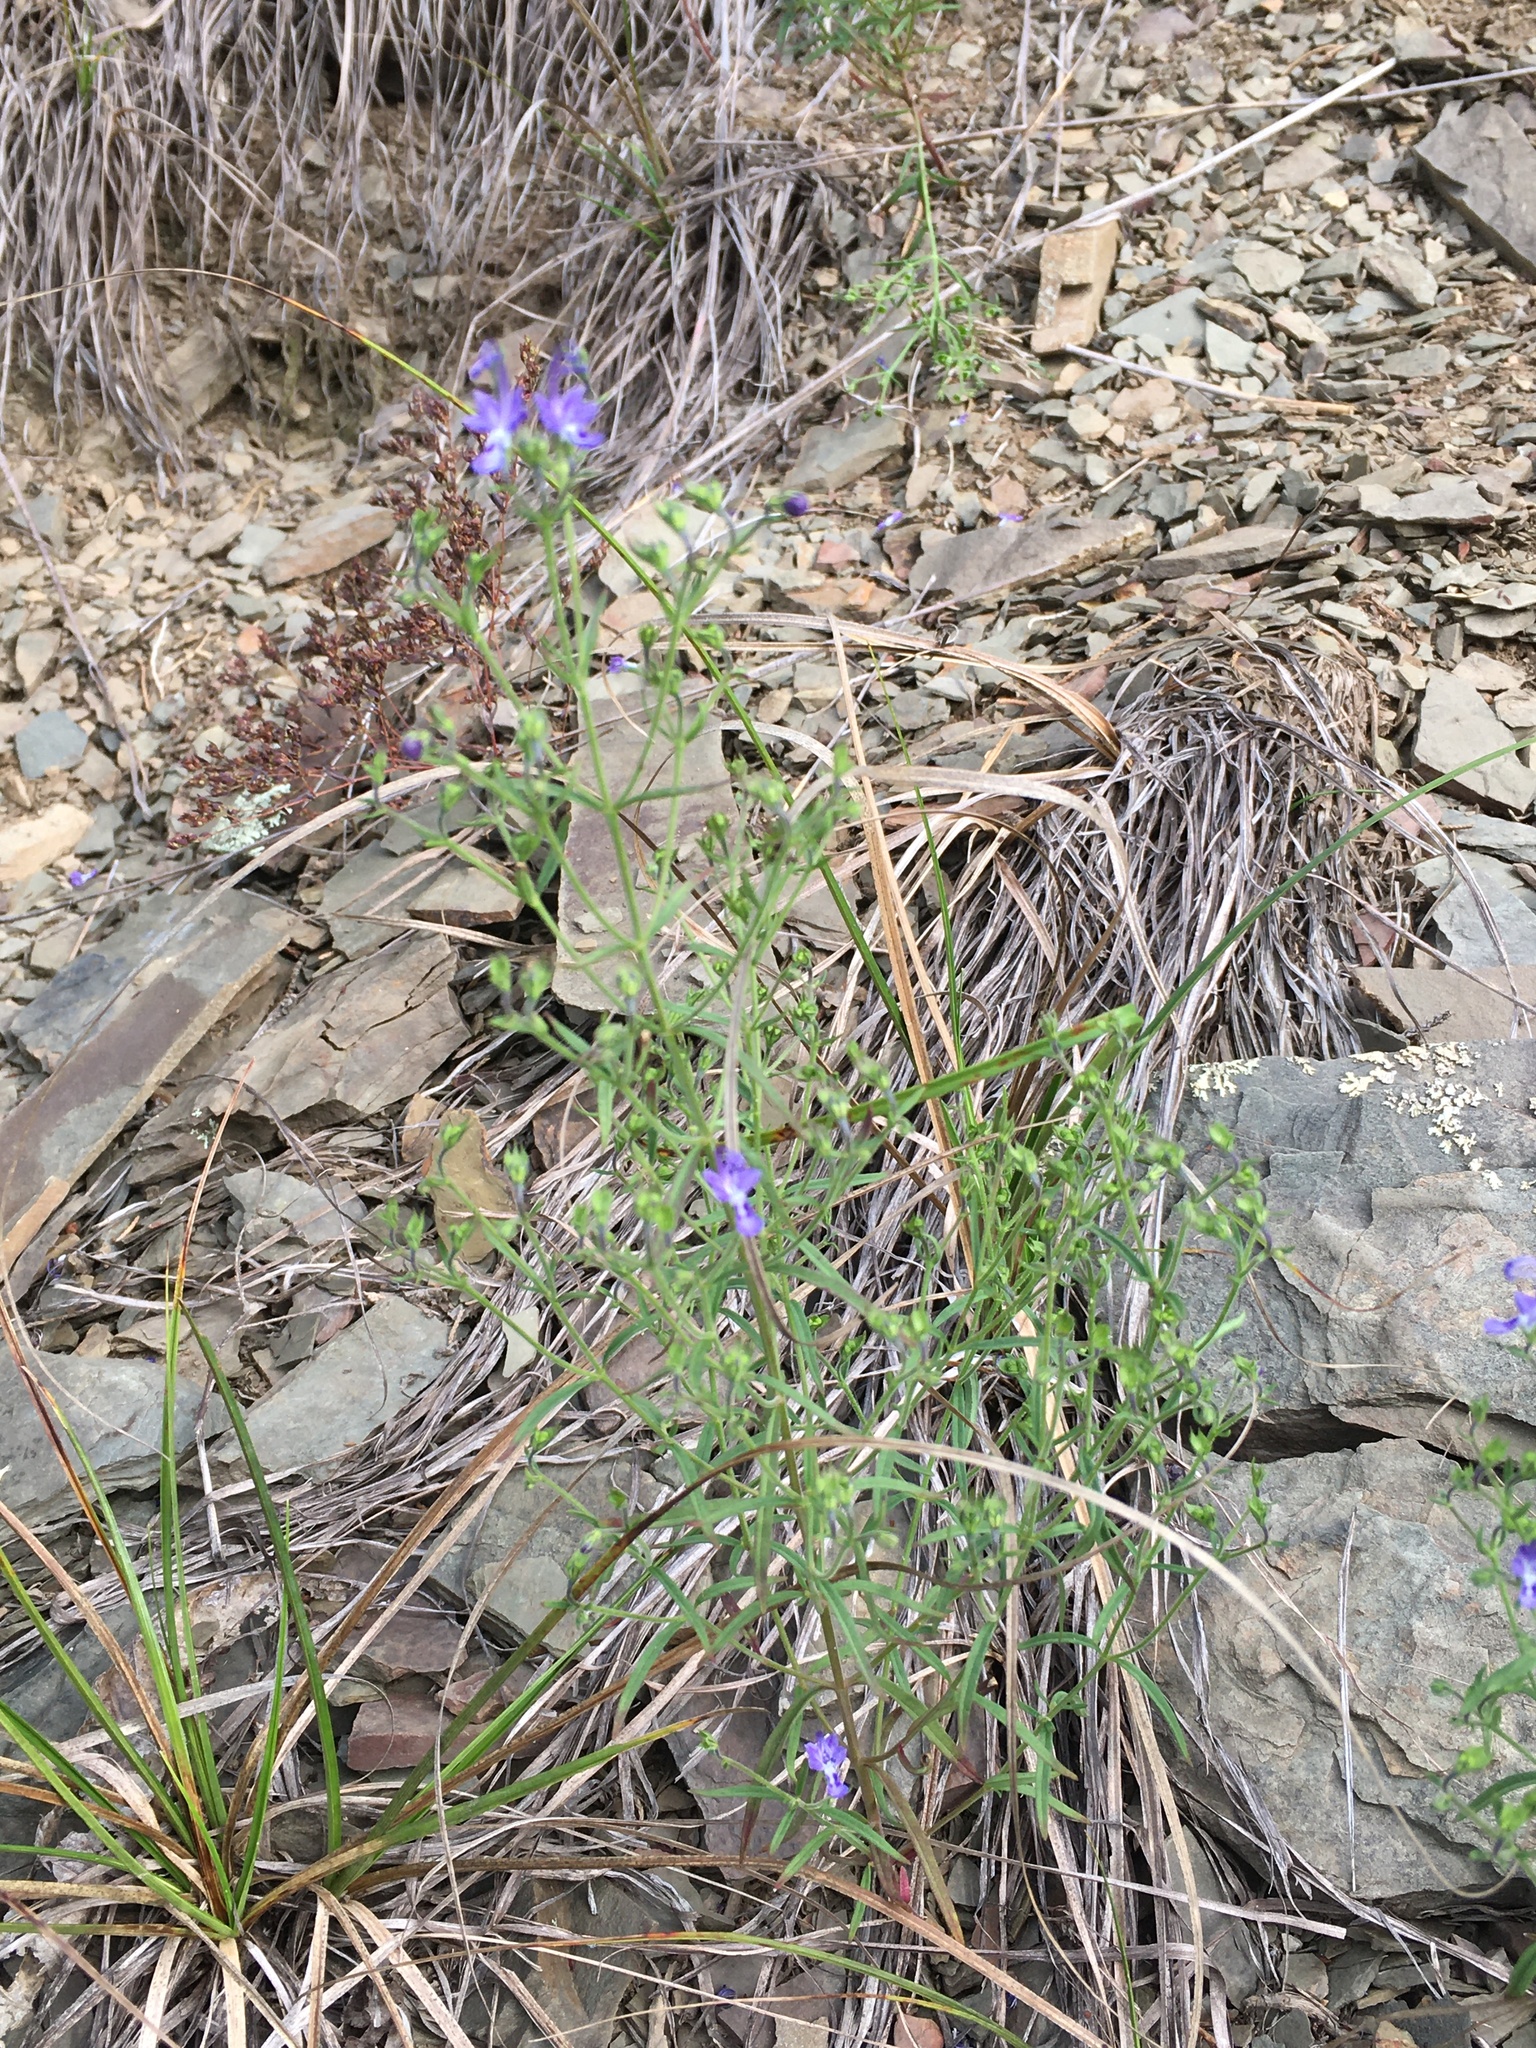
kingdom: Plantae
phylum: Tracheophyta
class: Magnoliopsida
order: Lamiales
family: Lamiaceae
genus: Trichostema
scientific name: Trichostema setaceum
